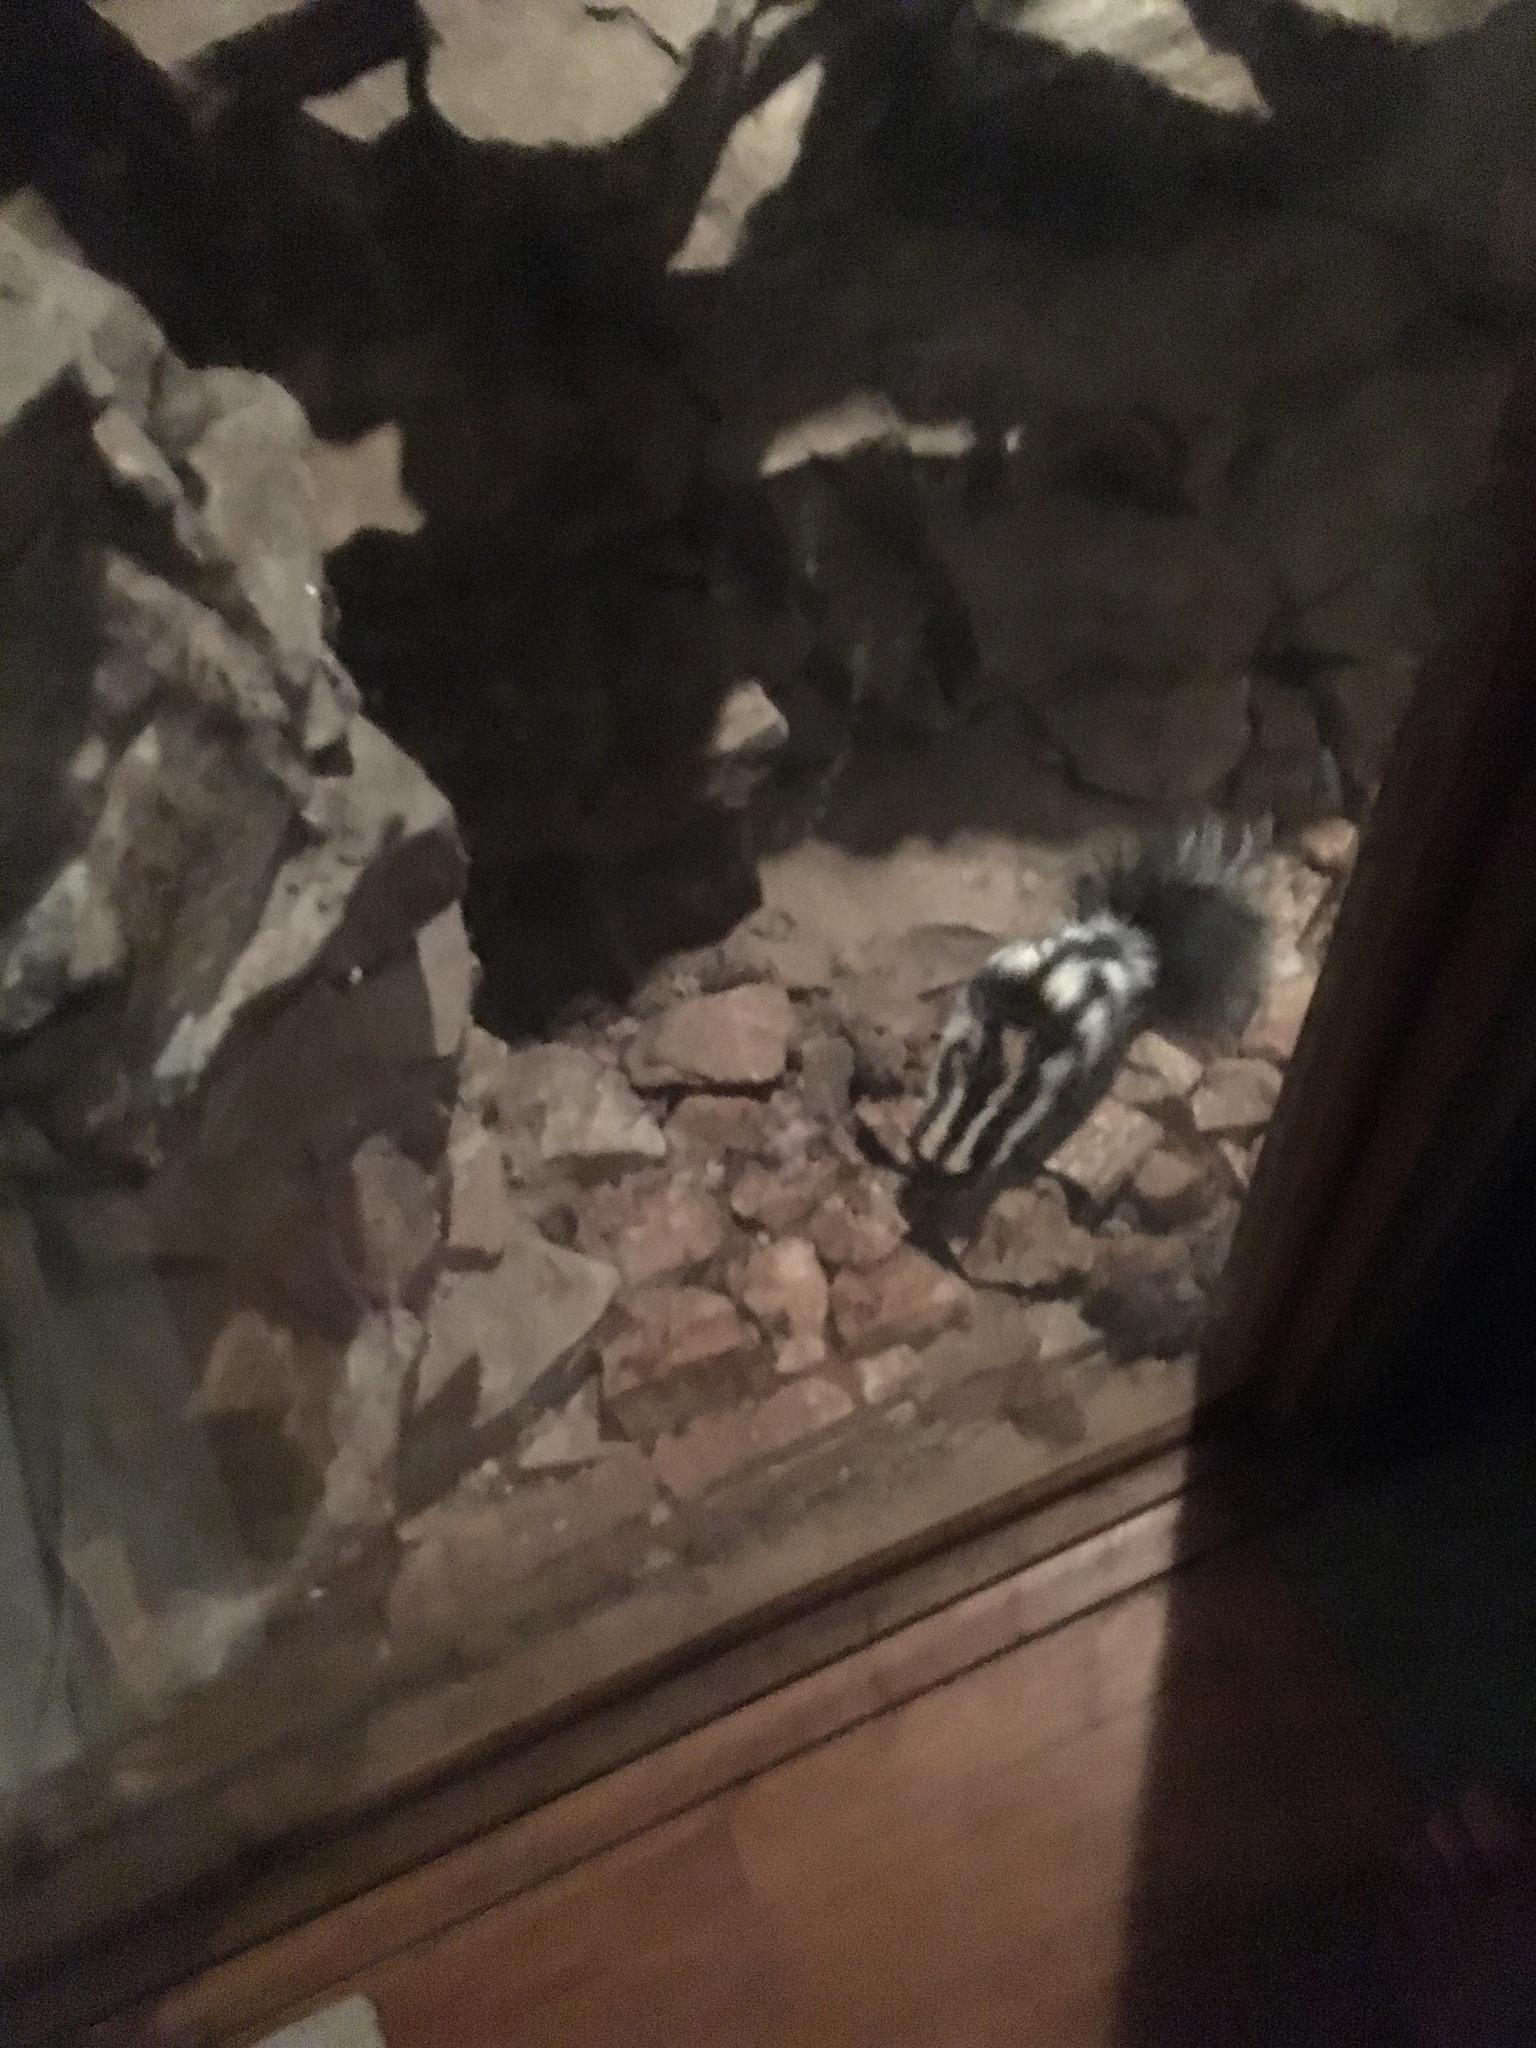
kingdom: Animalia
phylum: Chordata
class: Mammalia
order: Carnivora
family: Mephitidae
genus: Spilogale
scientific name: Spilogale gracilis
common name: Western spotted skunk
